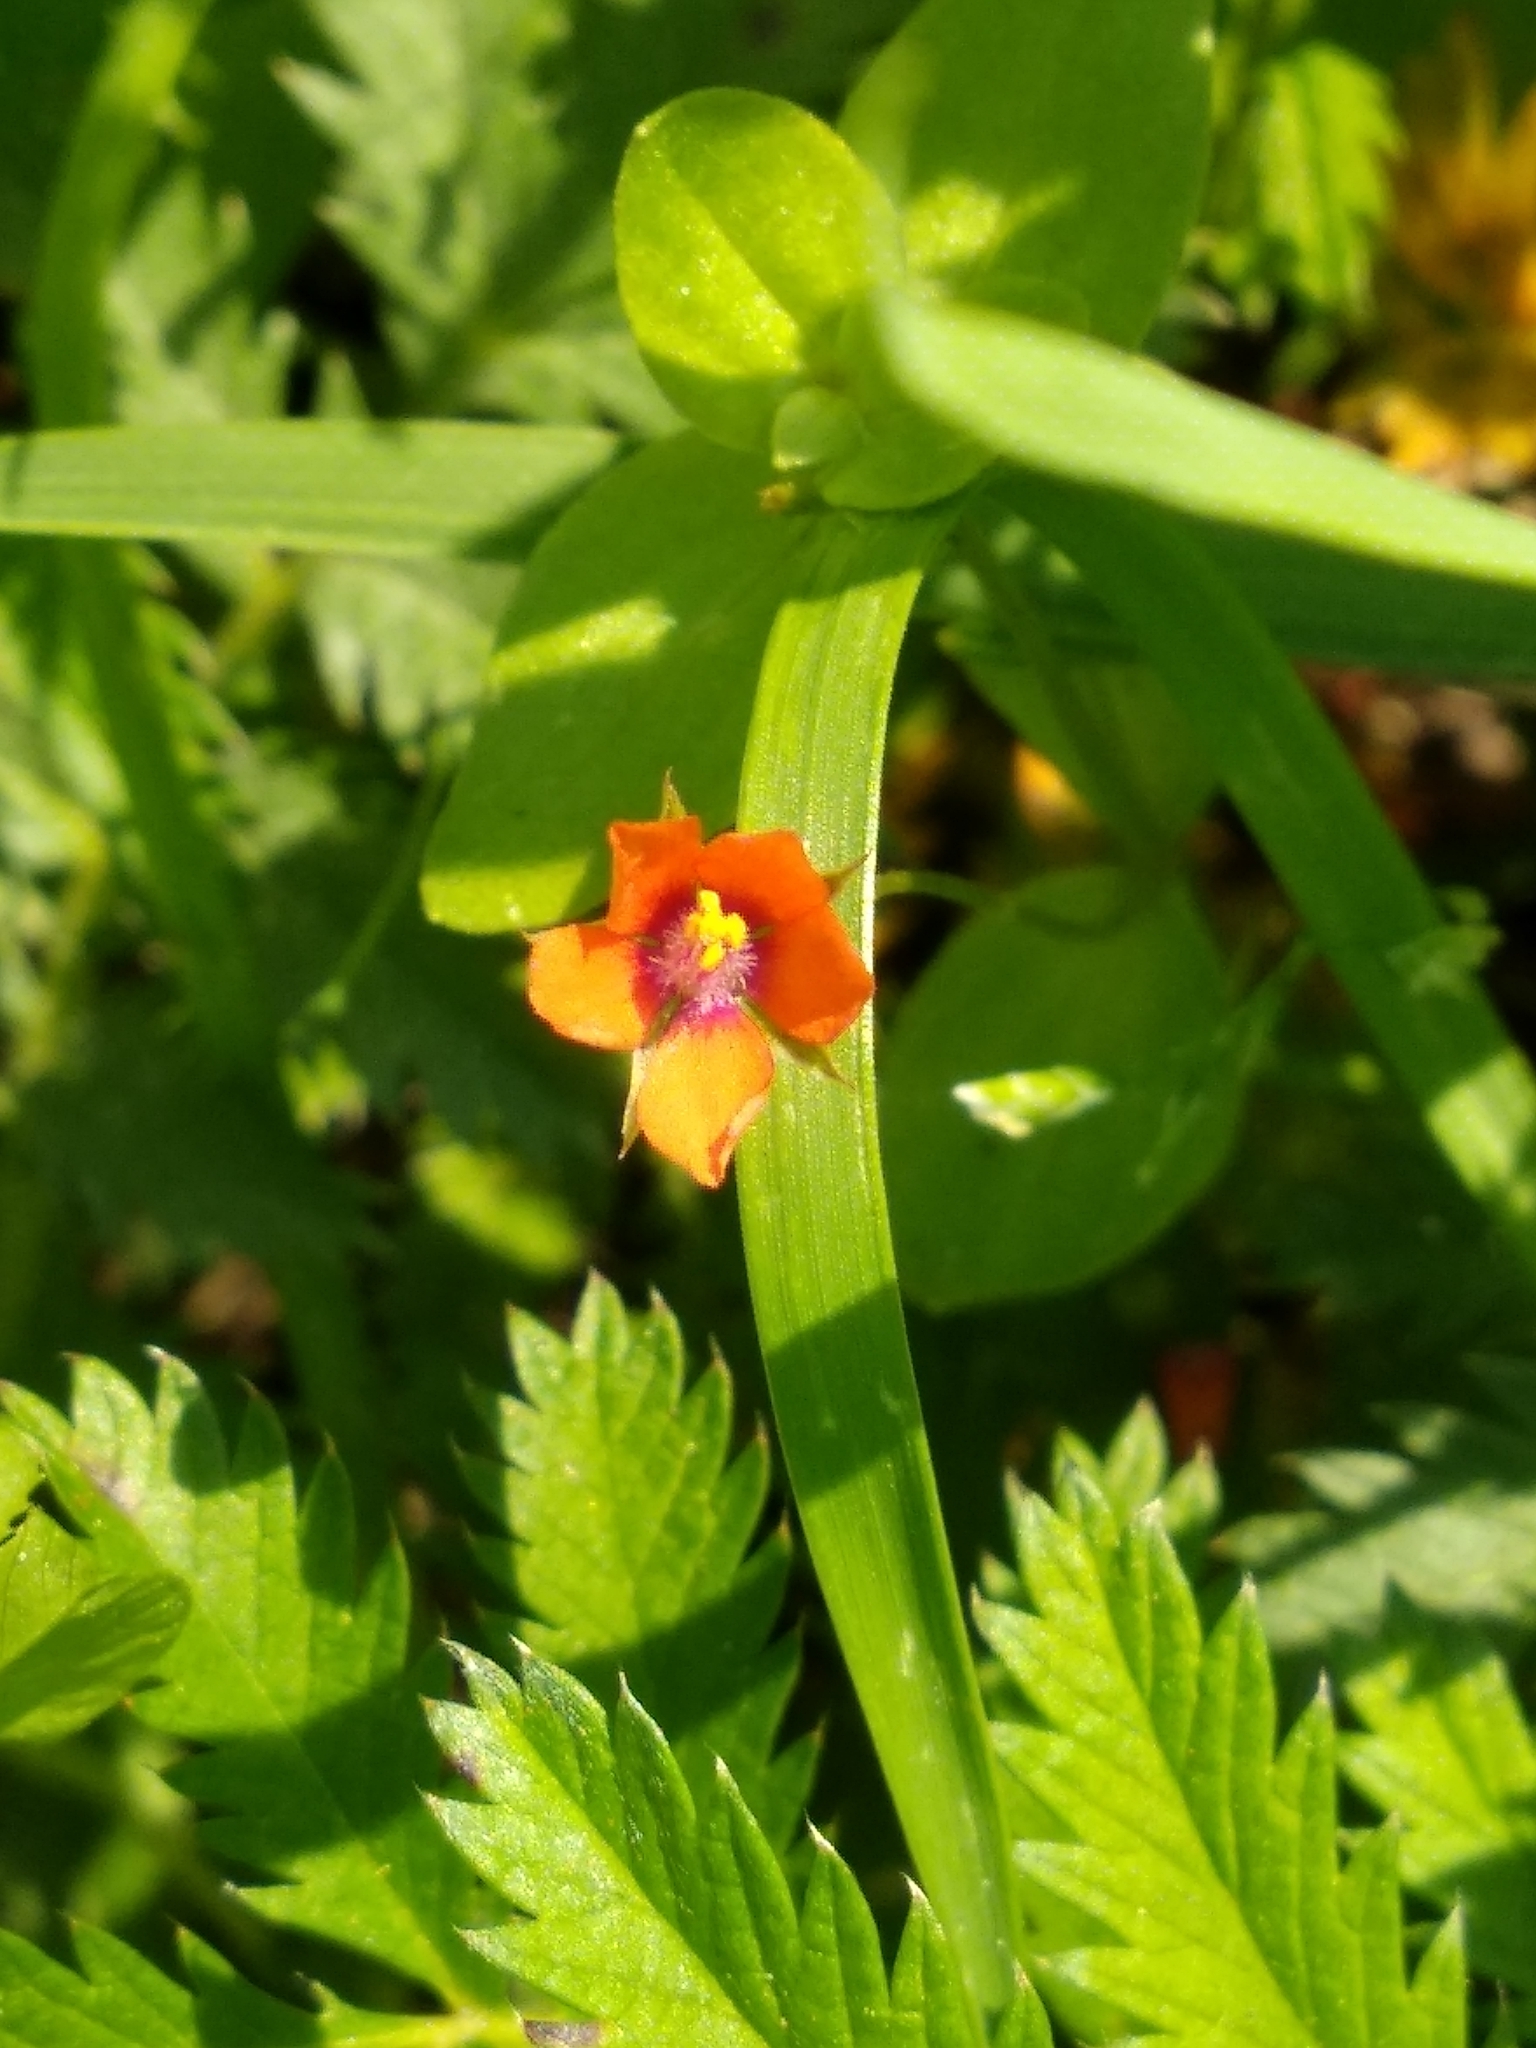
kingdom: Plantae
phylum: Tracheophyta
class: Magnoliopsida
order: Ericales
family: Primulaceae
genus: Lysimachia
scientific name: Lysimachia arvensis
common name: Scarlet pimpernel
